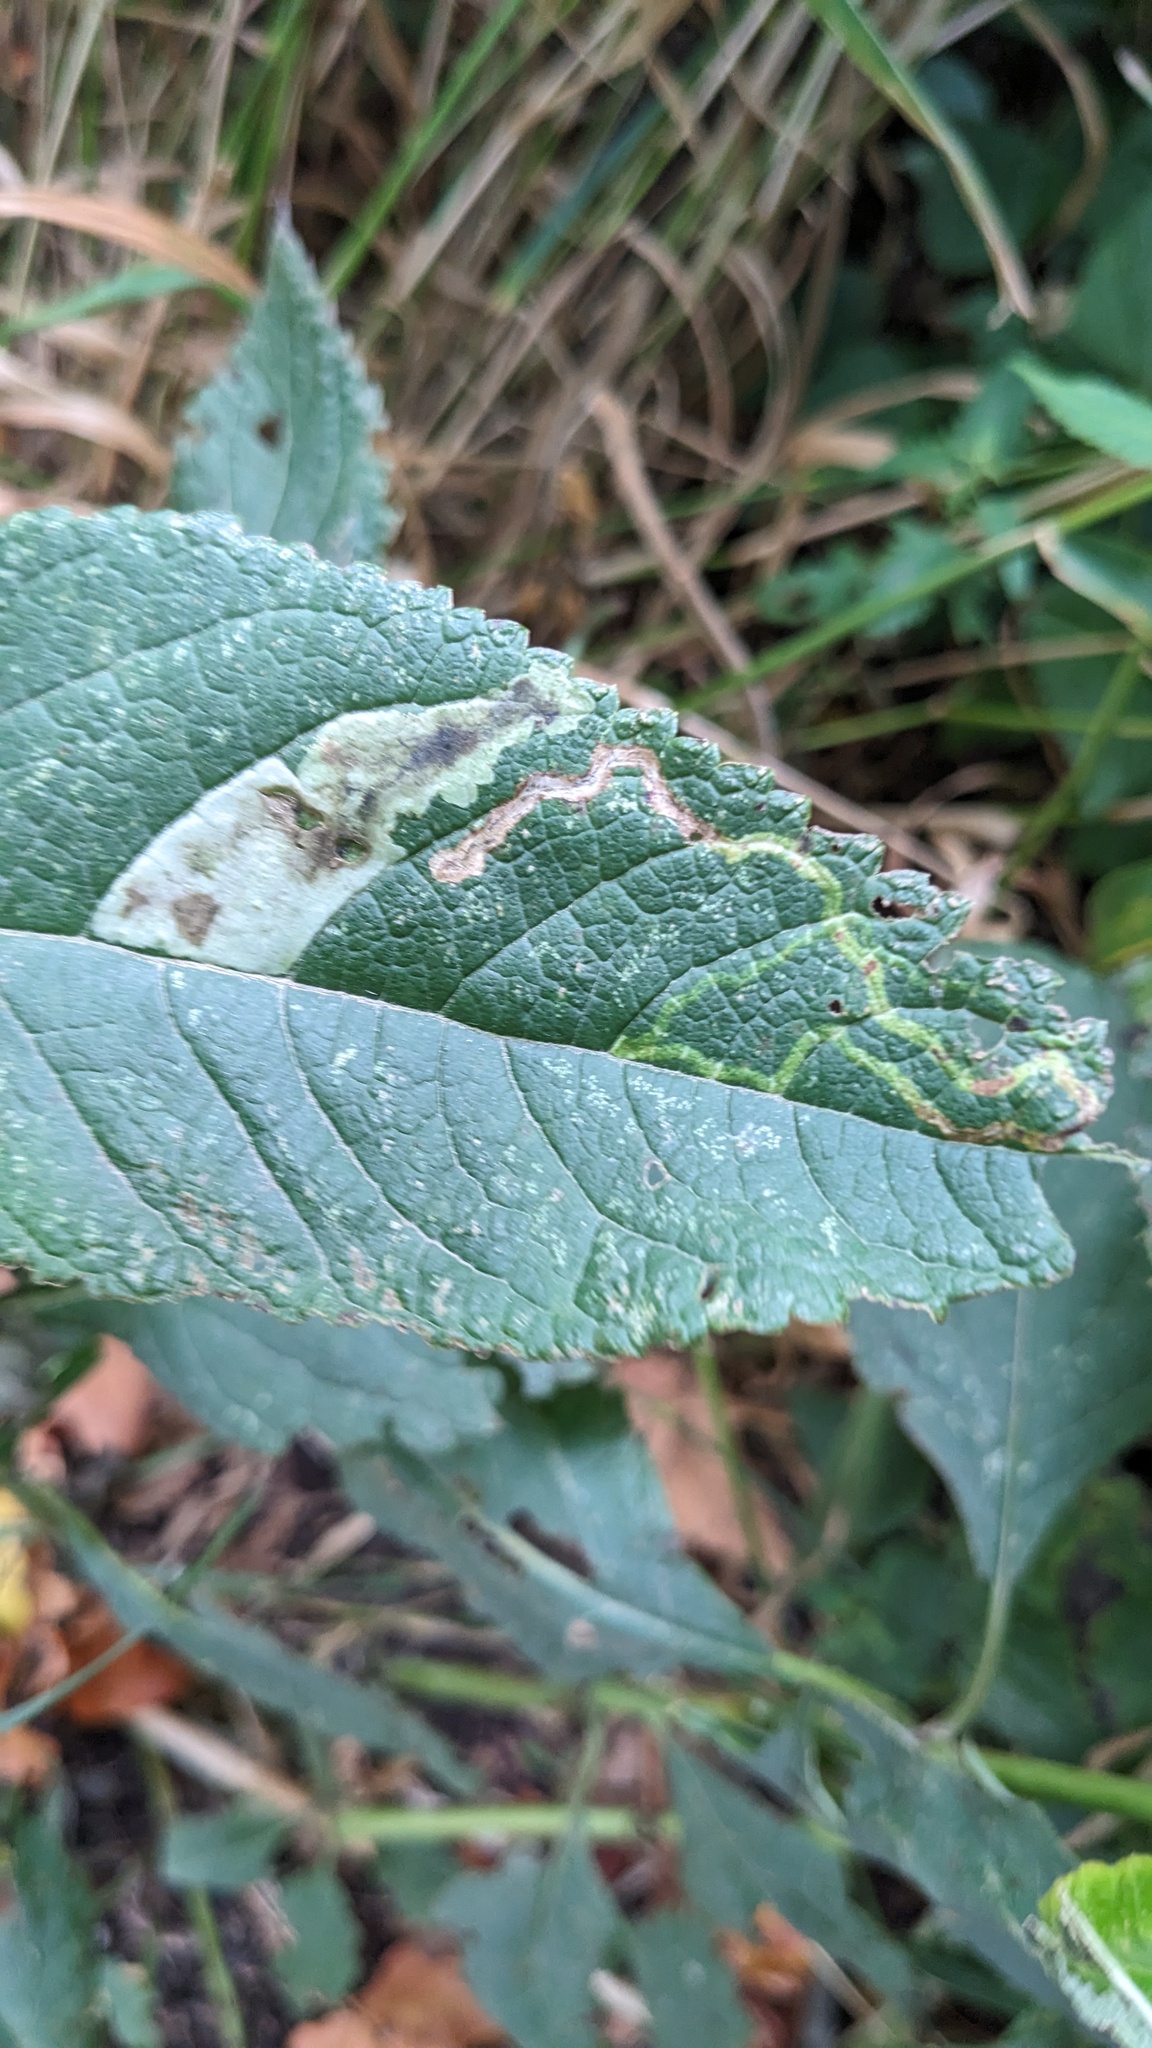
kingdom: Animalia
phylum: Arthropoda
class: Insecta
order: Diptera
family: Agromyzidae
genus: Calycomyza
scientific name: Calycomyza flavinotum
